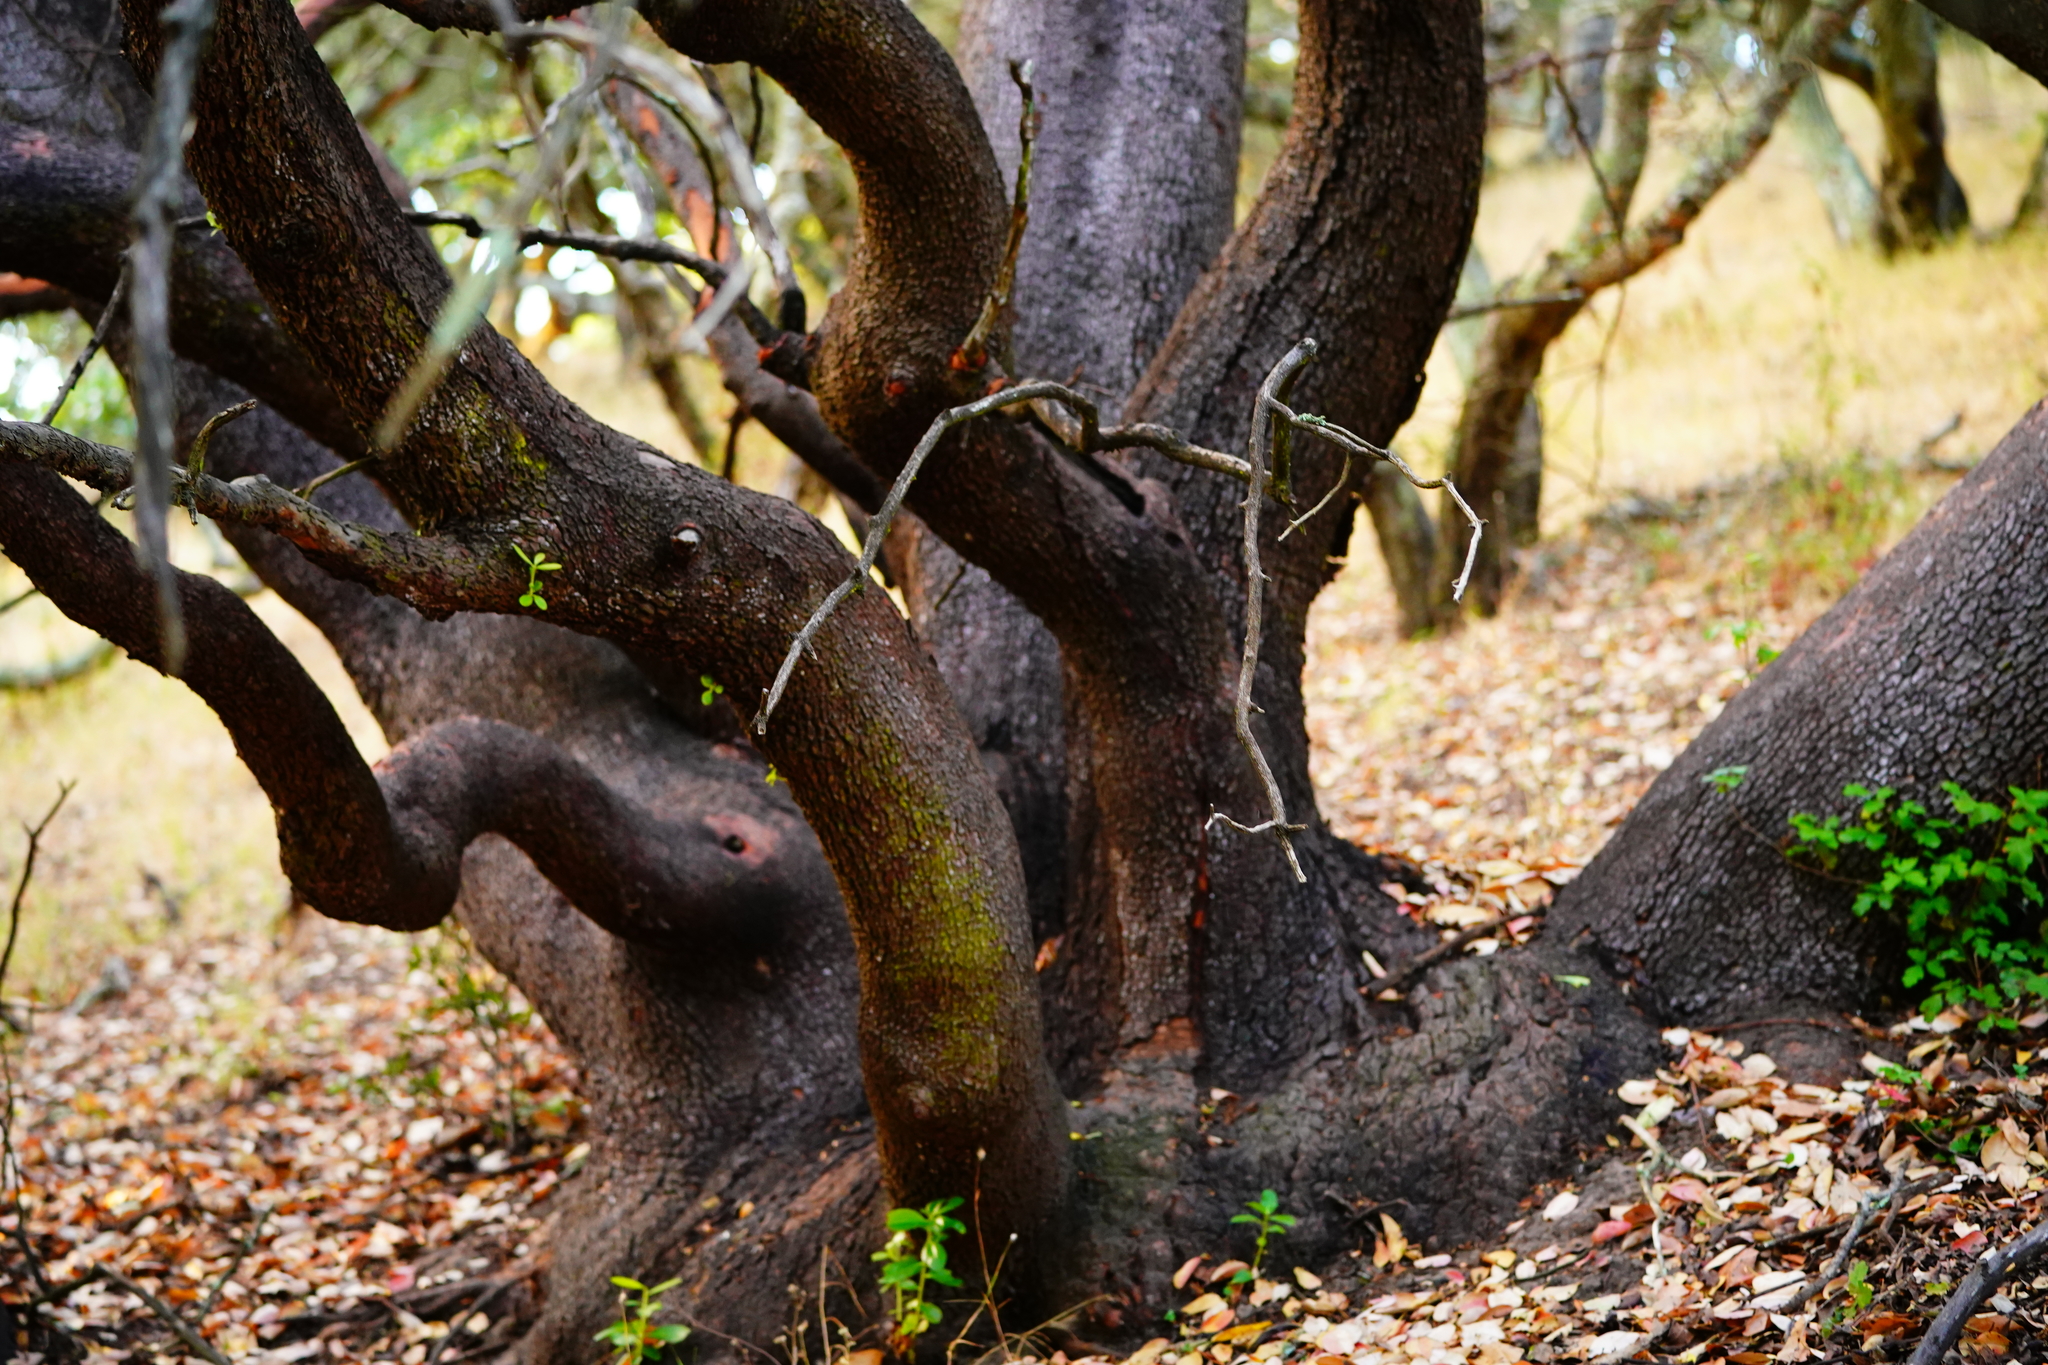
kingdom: Plantae
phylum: Tracheophyta
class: Magnoliopsida
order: Ericales
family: Ericaceae
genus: Arbutus
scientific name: Arbutus menziesii
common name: Pacific madrone
